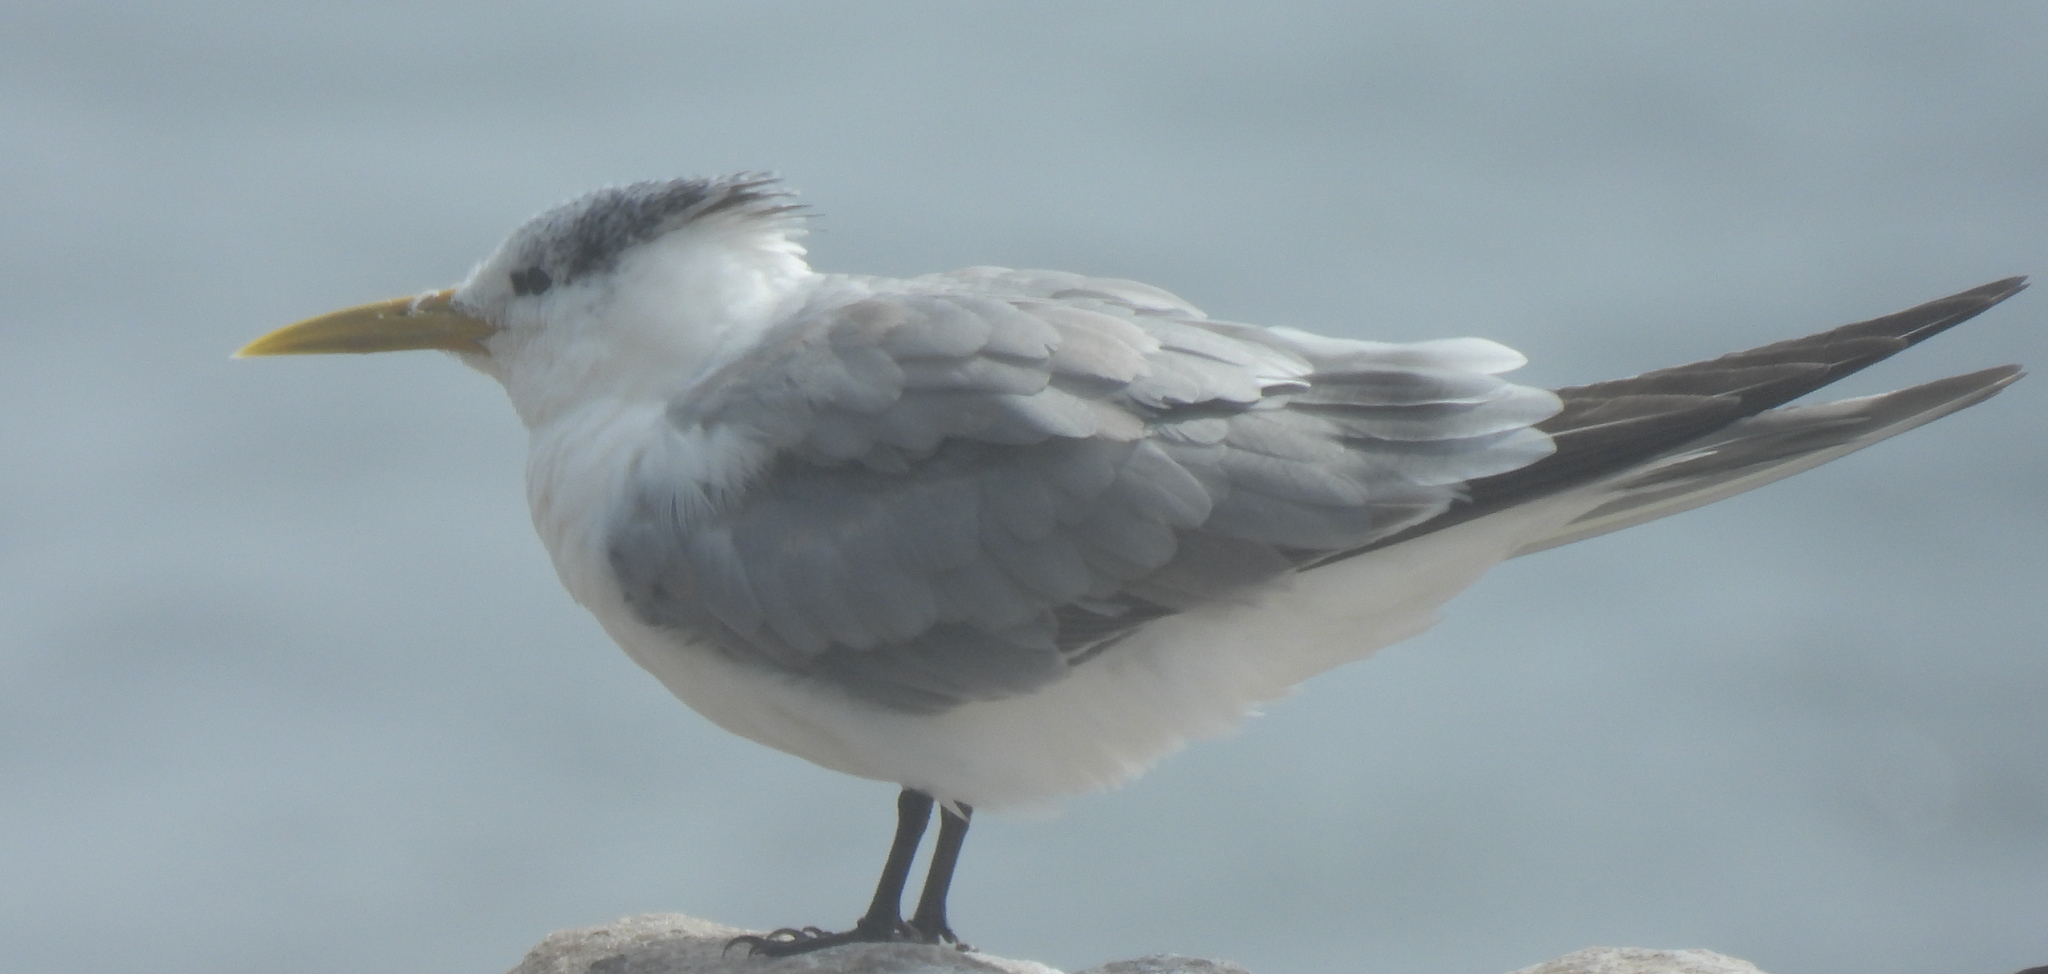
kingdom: Animalia
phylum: Chordata
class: Aves
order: Charadriiformes
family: Laridae
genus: Thalasseus
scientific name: Thalasseus bergii
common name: Greater crested tern
